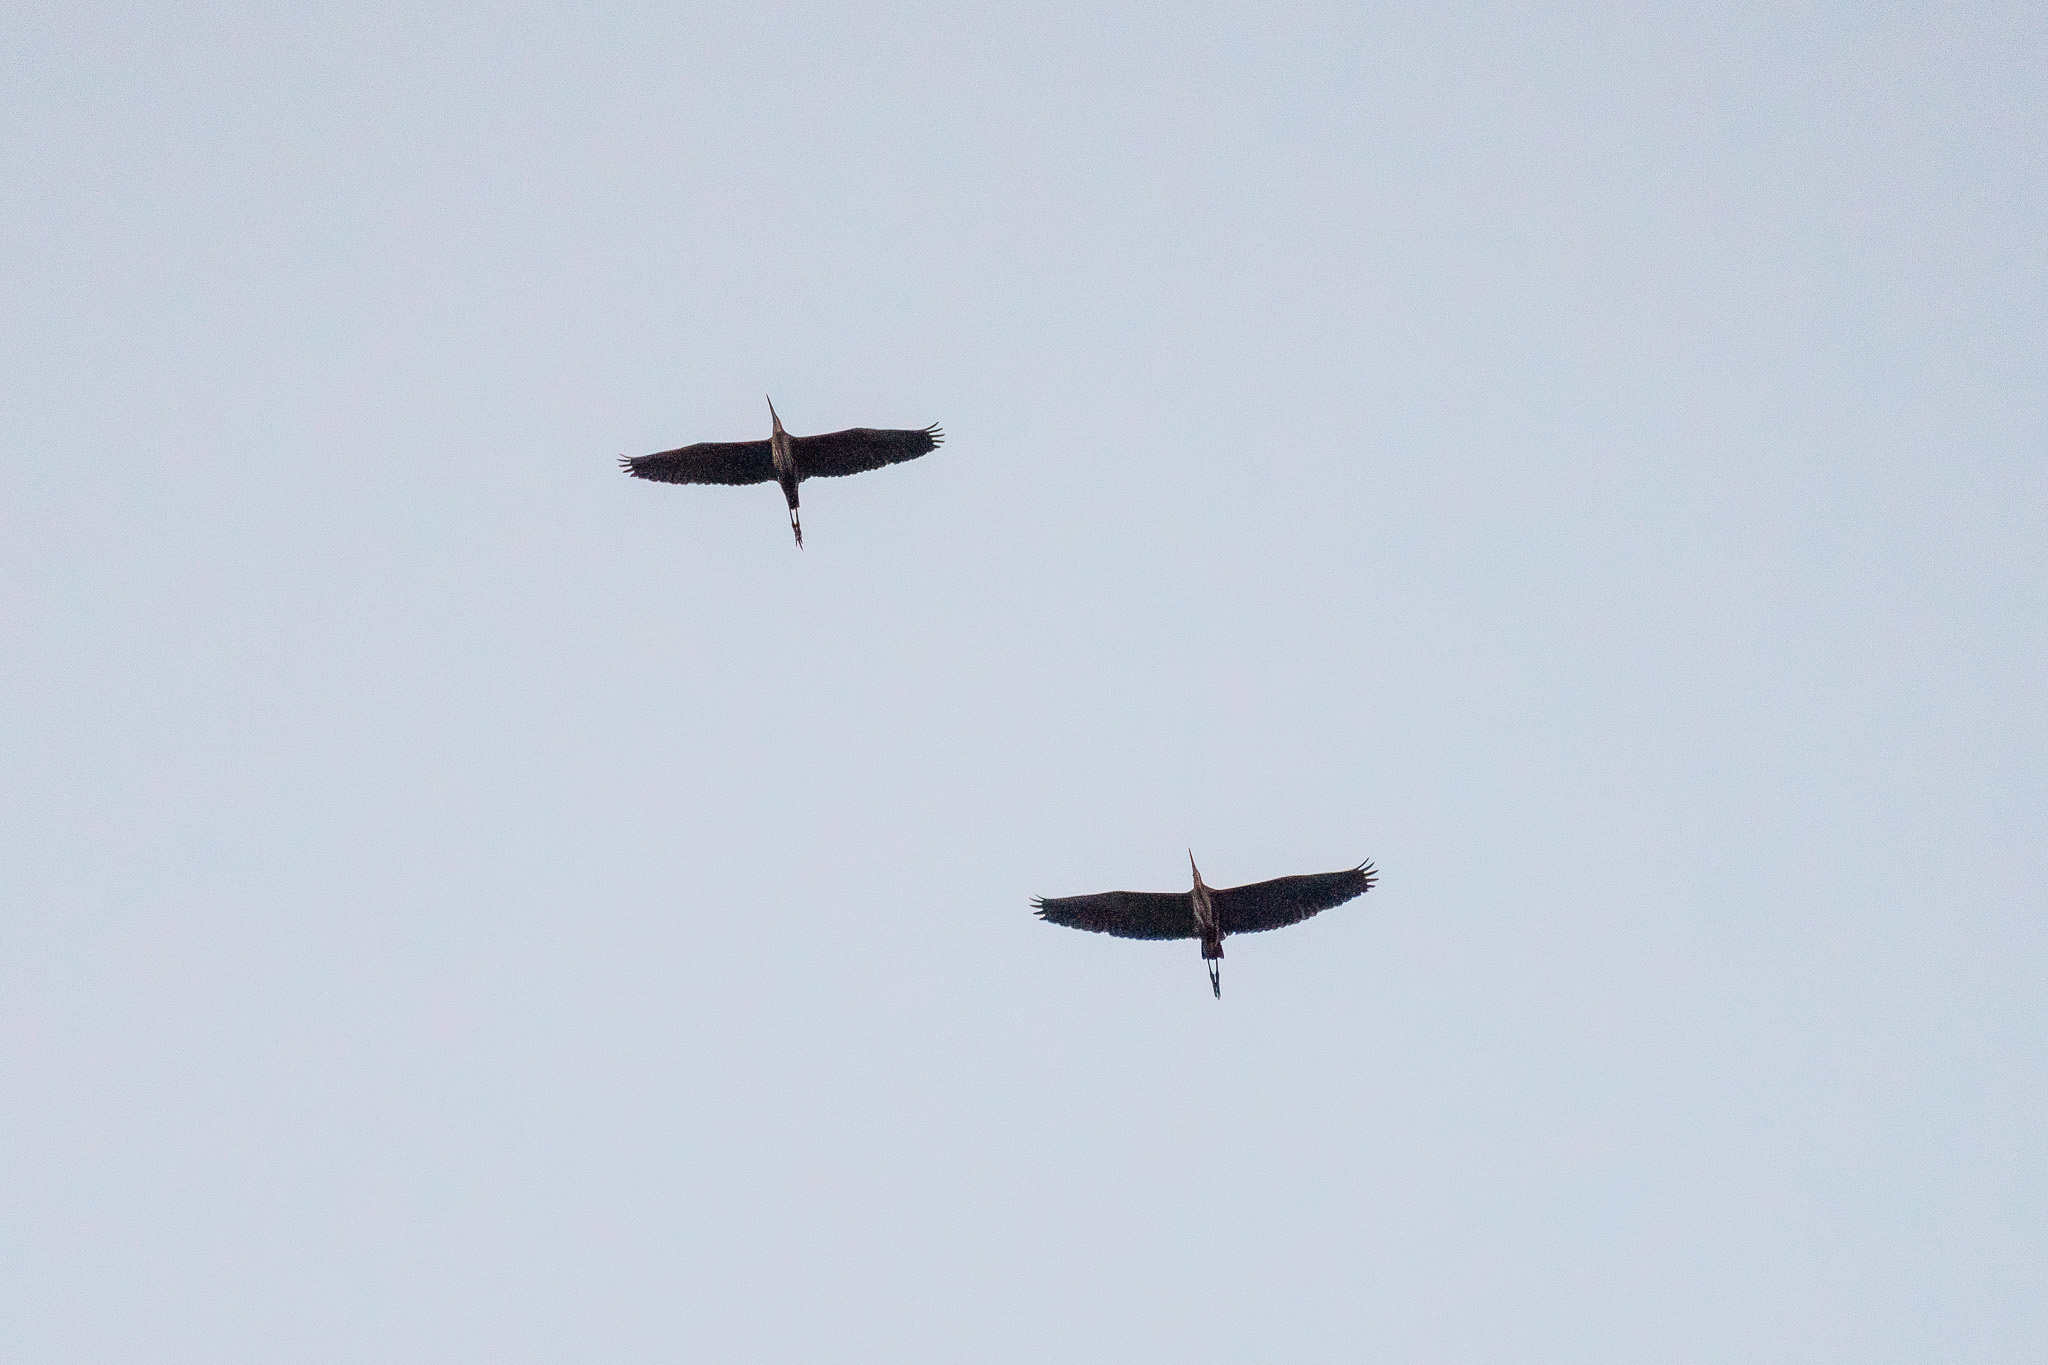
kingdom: Animalia
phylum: Chordata
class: Aves
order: Pelecaniformes
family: Ardeidae
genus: Ardea
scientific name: Ardea purpurea
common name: Purple heron
